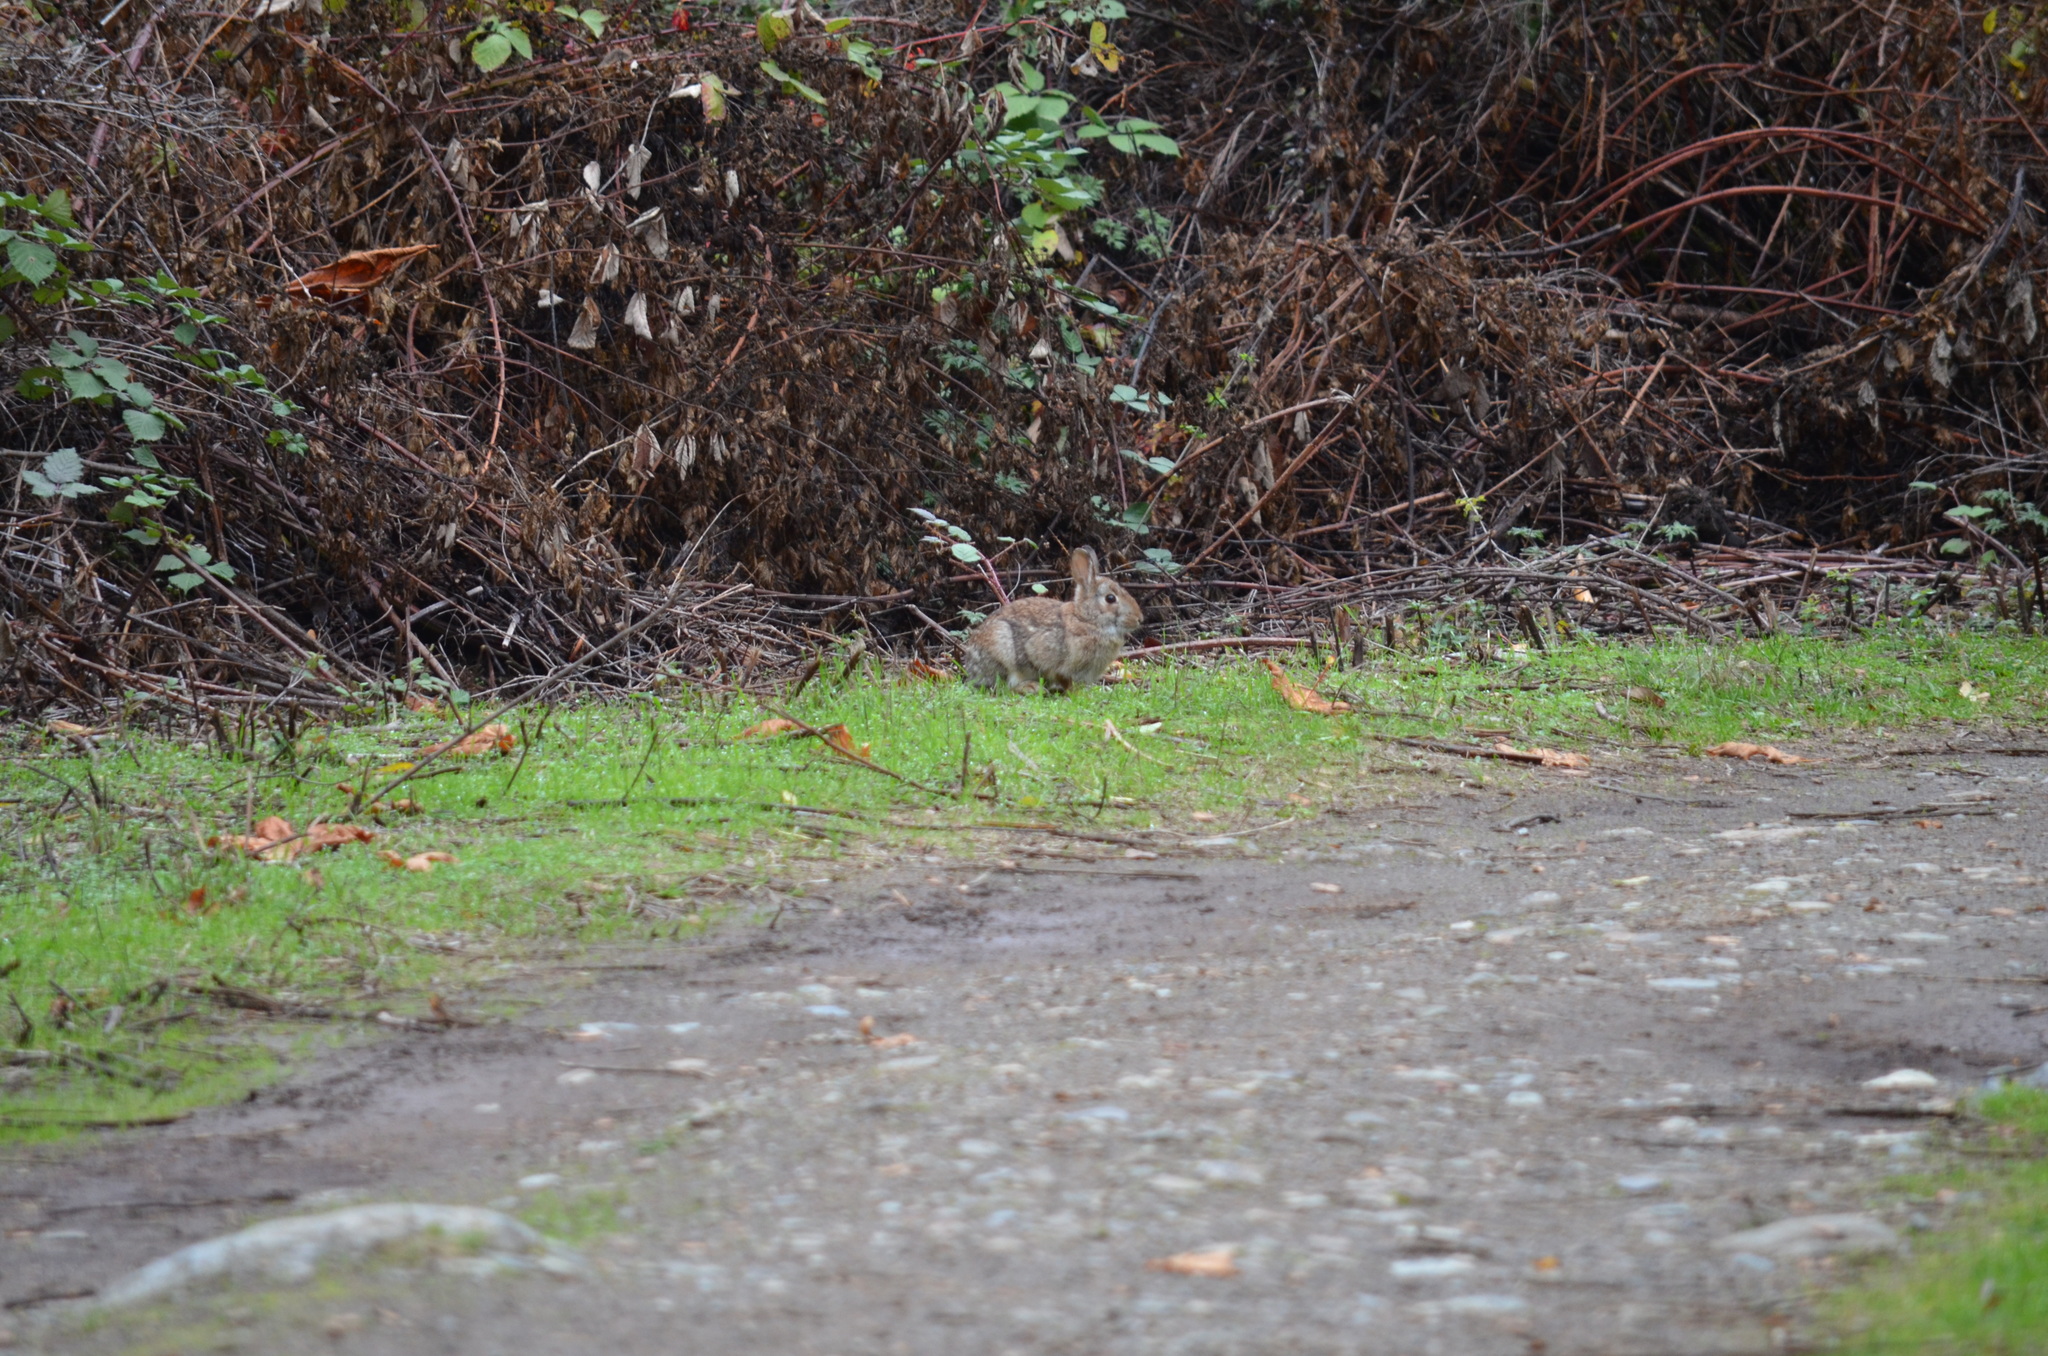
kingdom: Animalia
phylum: Chordata
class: Mammalia
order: Lagomorpha
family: Leporidae
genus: Sylvilagus
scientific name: Sylvilagus floridanus
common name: Eastern cottontail
